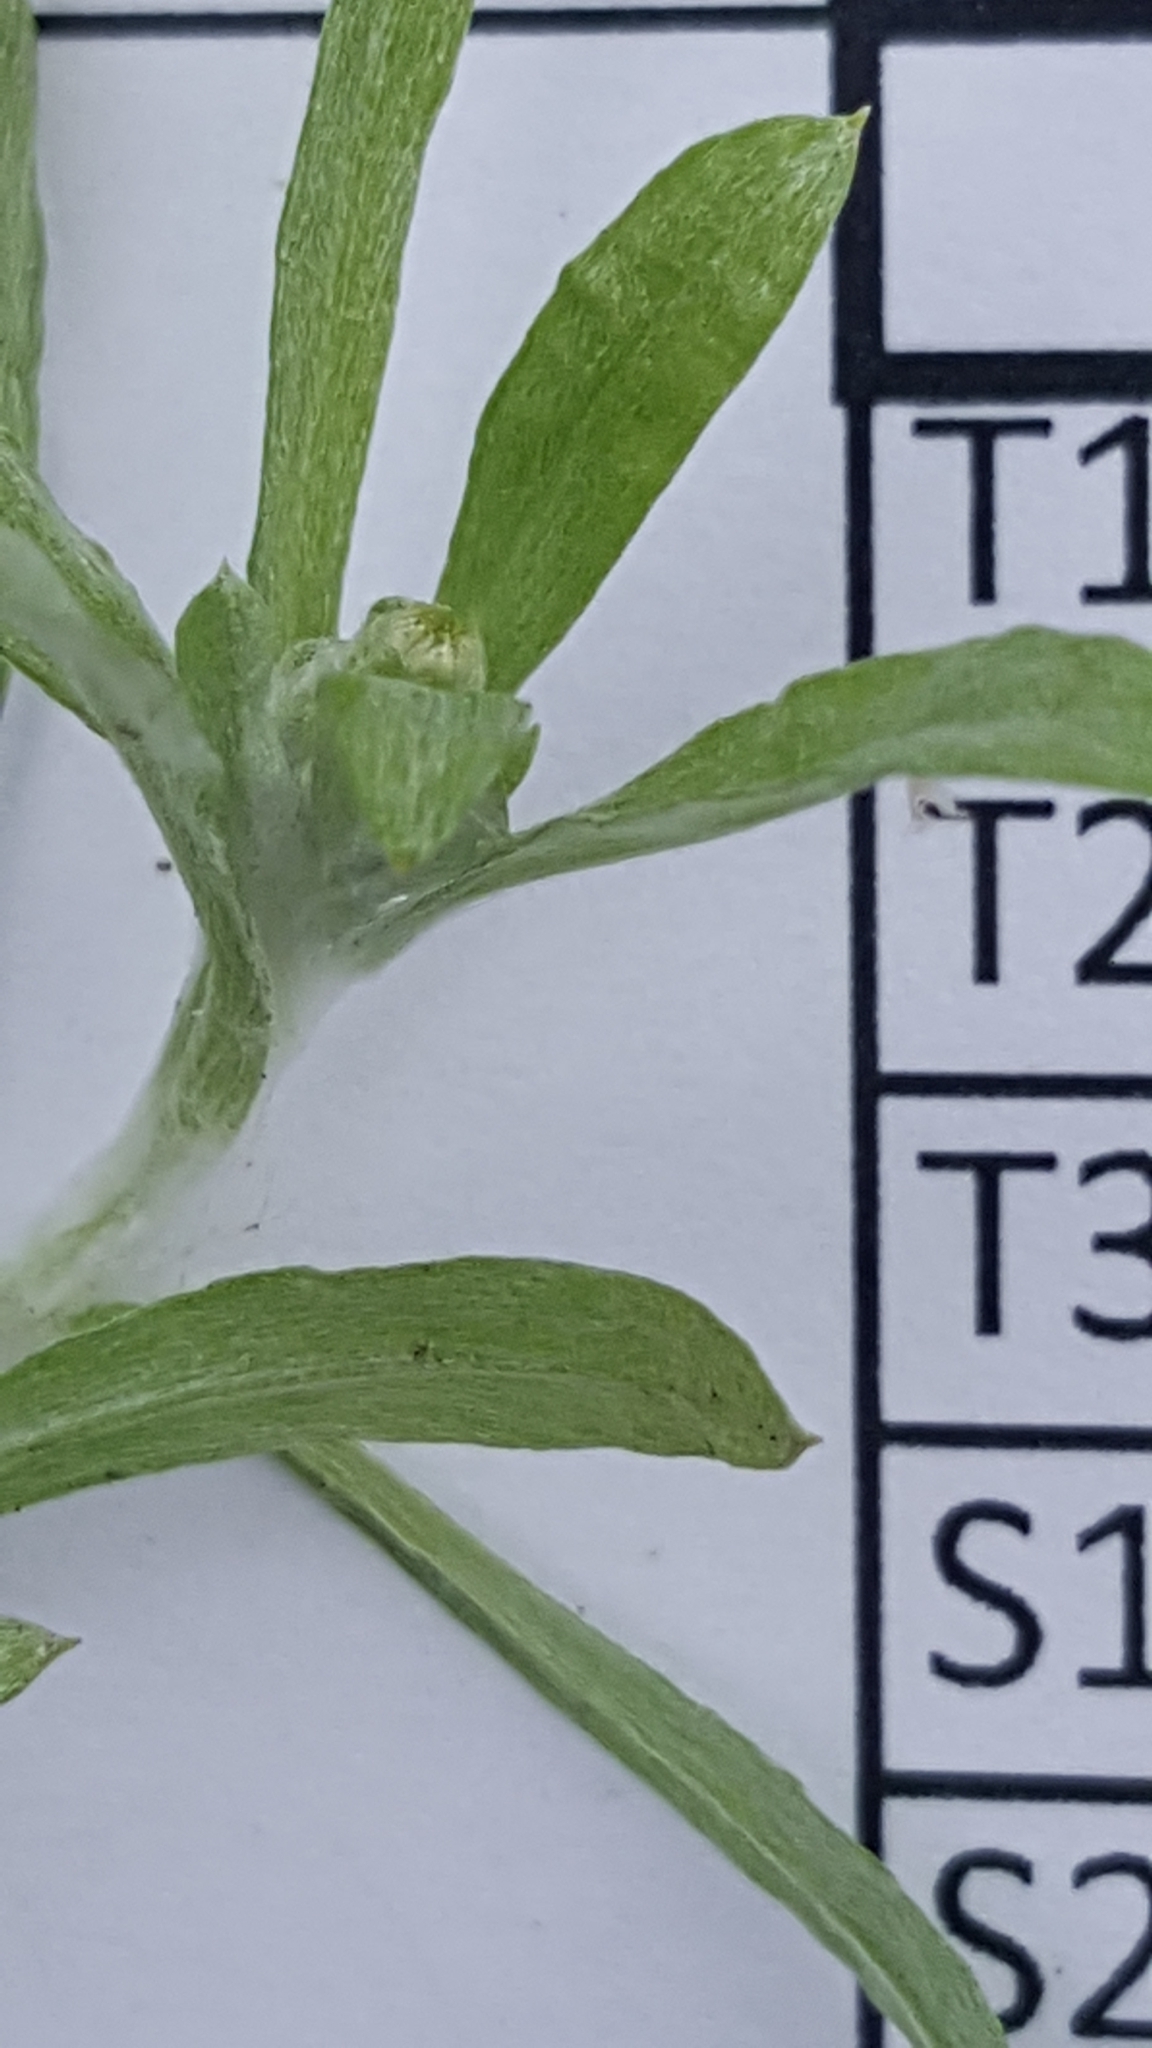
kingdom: Plantae
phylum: Tracheophyta
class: Magnoliopsida
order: Asterales
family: Asteraceae
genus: Gnaphalium
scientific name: Gnaphalium uliginosum
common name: Marsh cudweed
